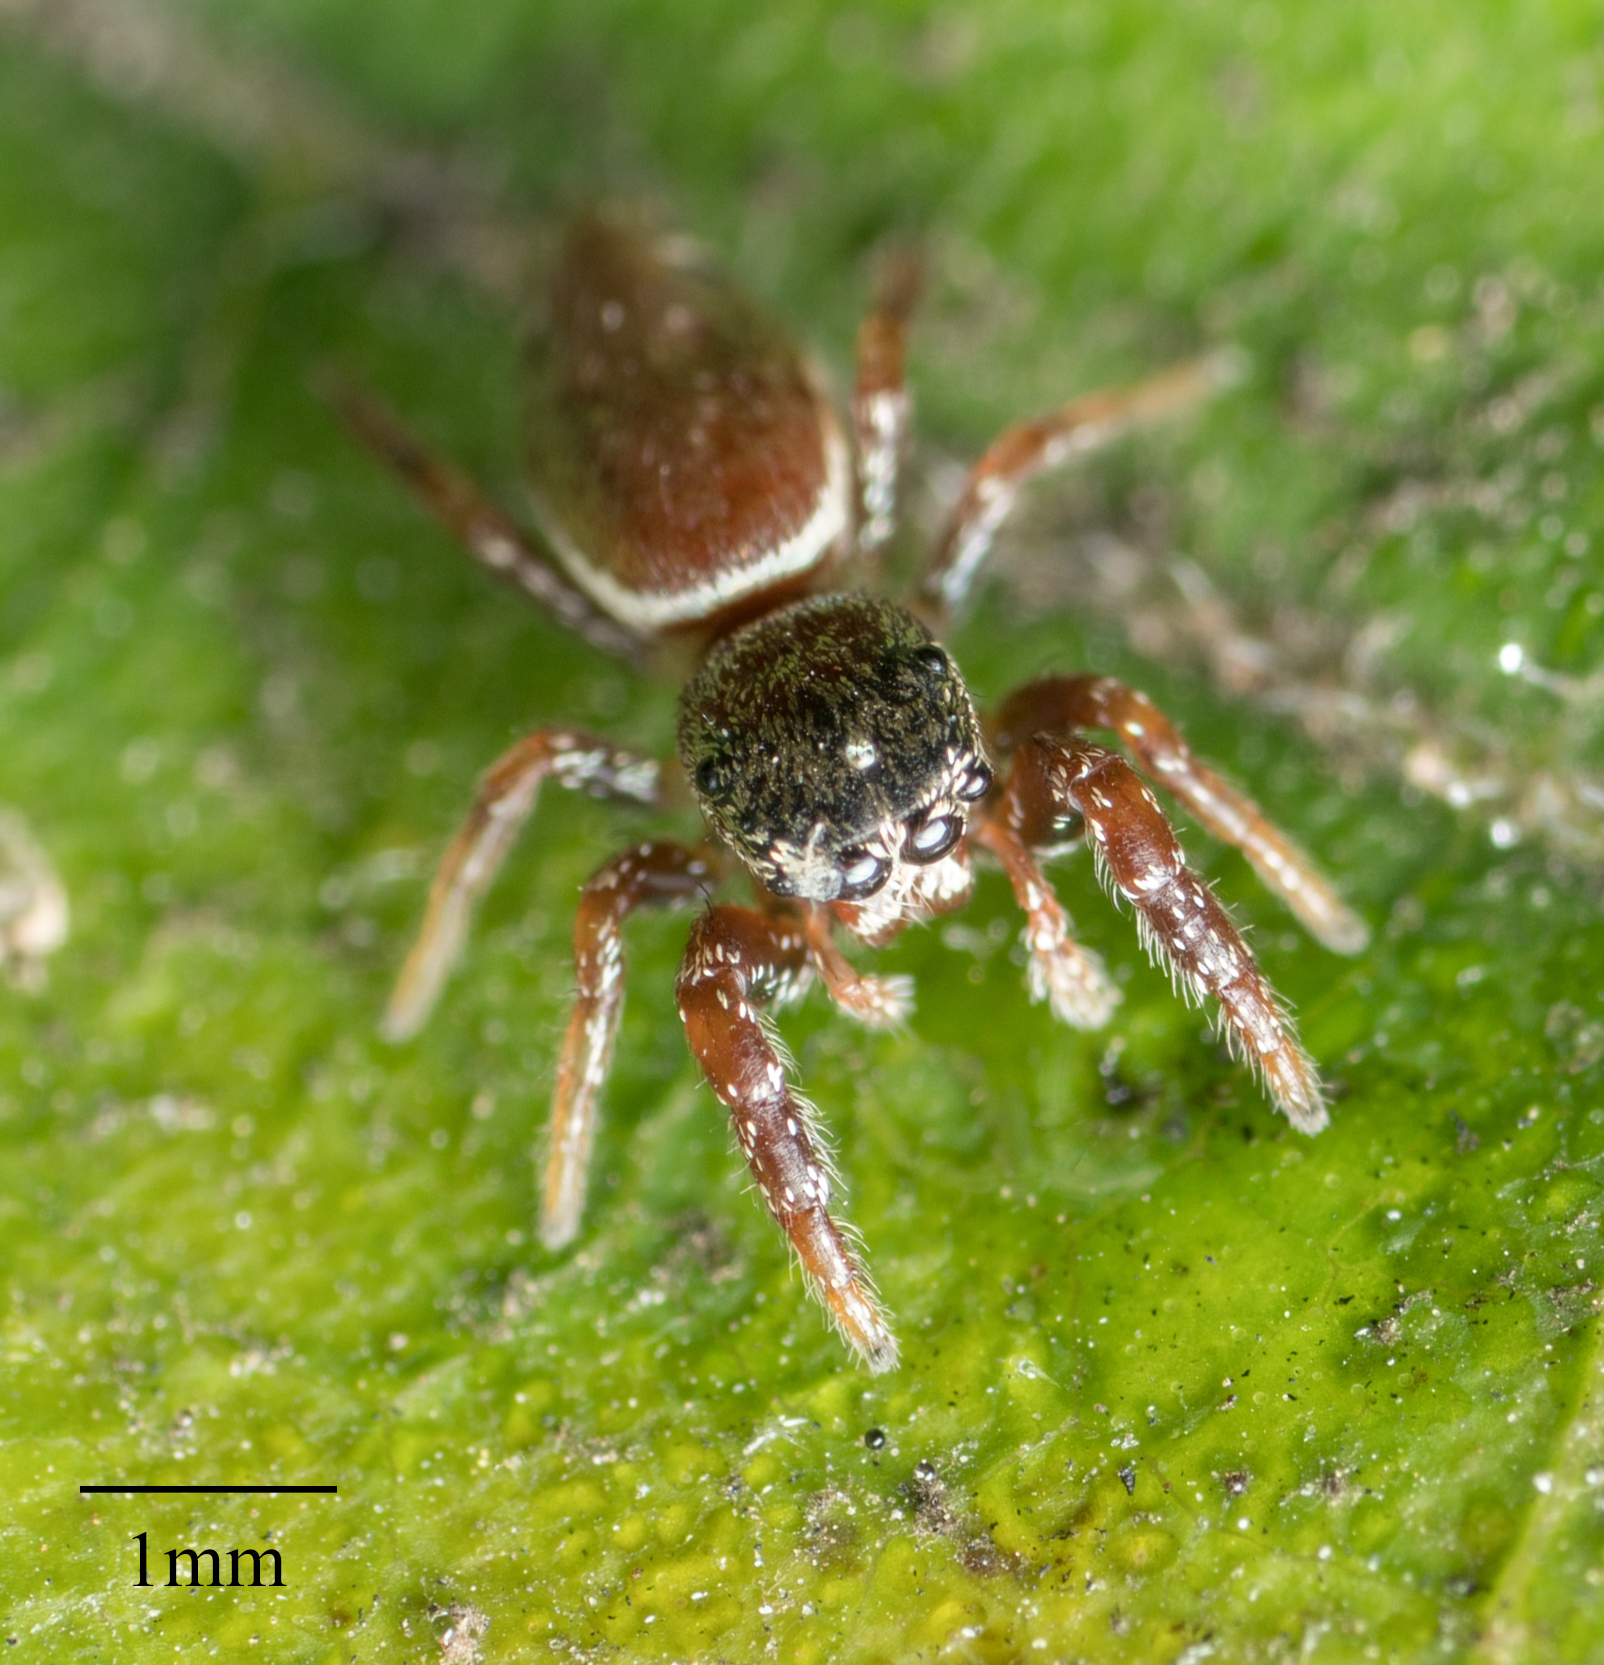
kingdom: Animalia
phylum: Arthropoda
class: Arachnida
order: Araneae
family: Salticidae
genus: Sassacus
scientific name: Sassacus vitis
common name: Jumping spiders
